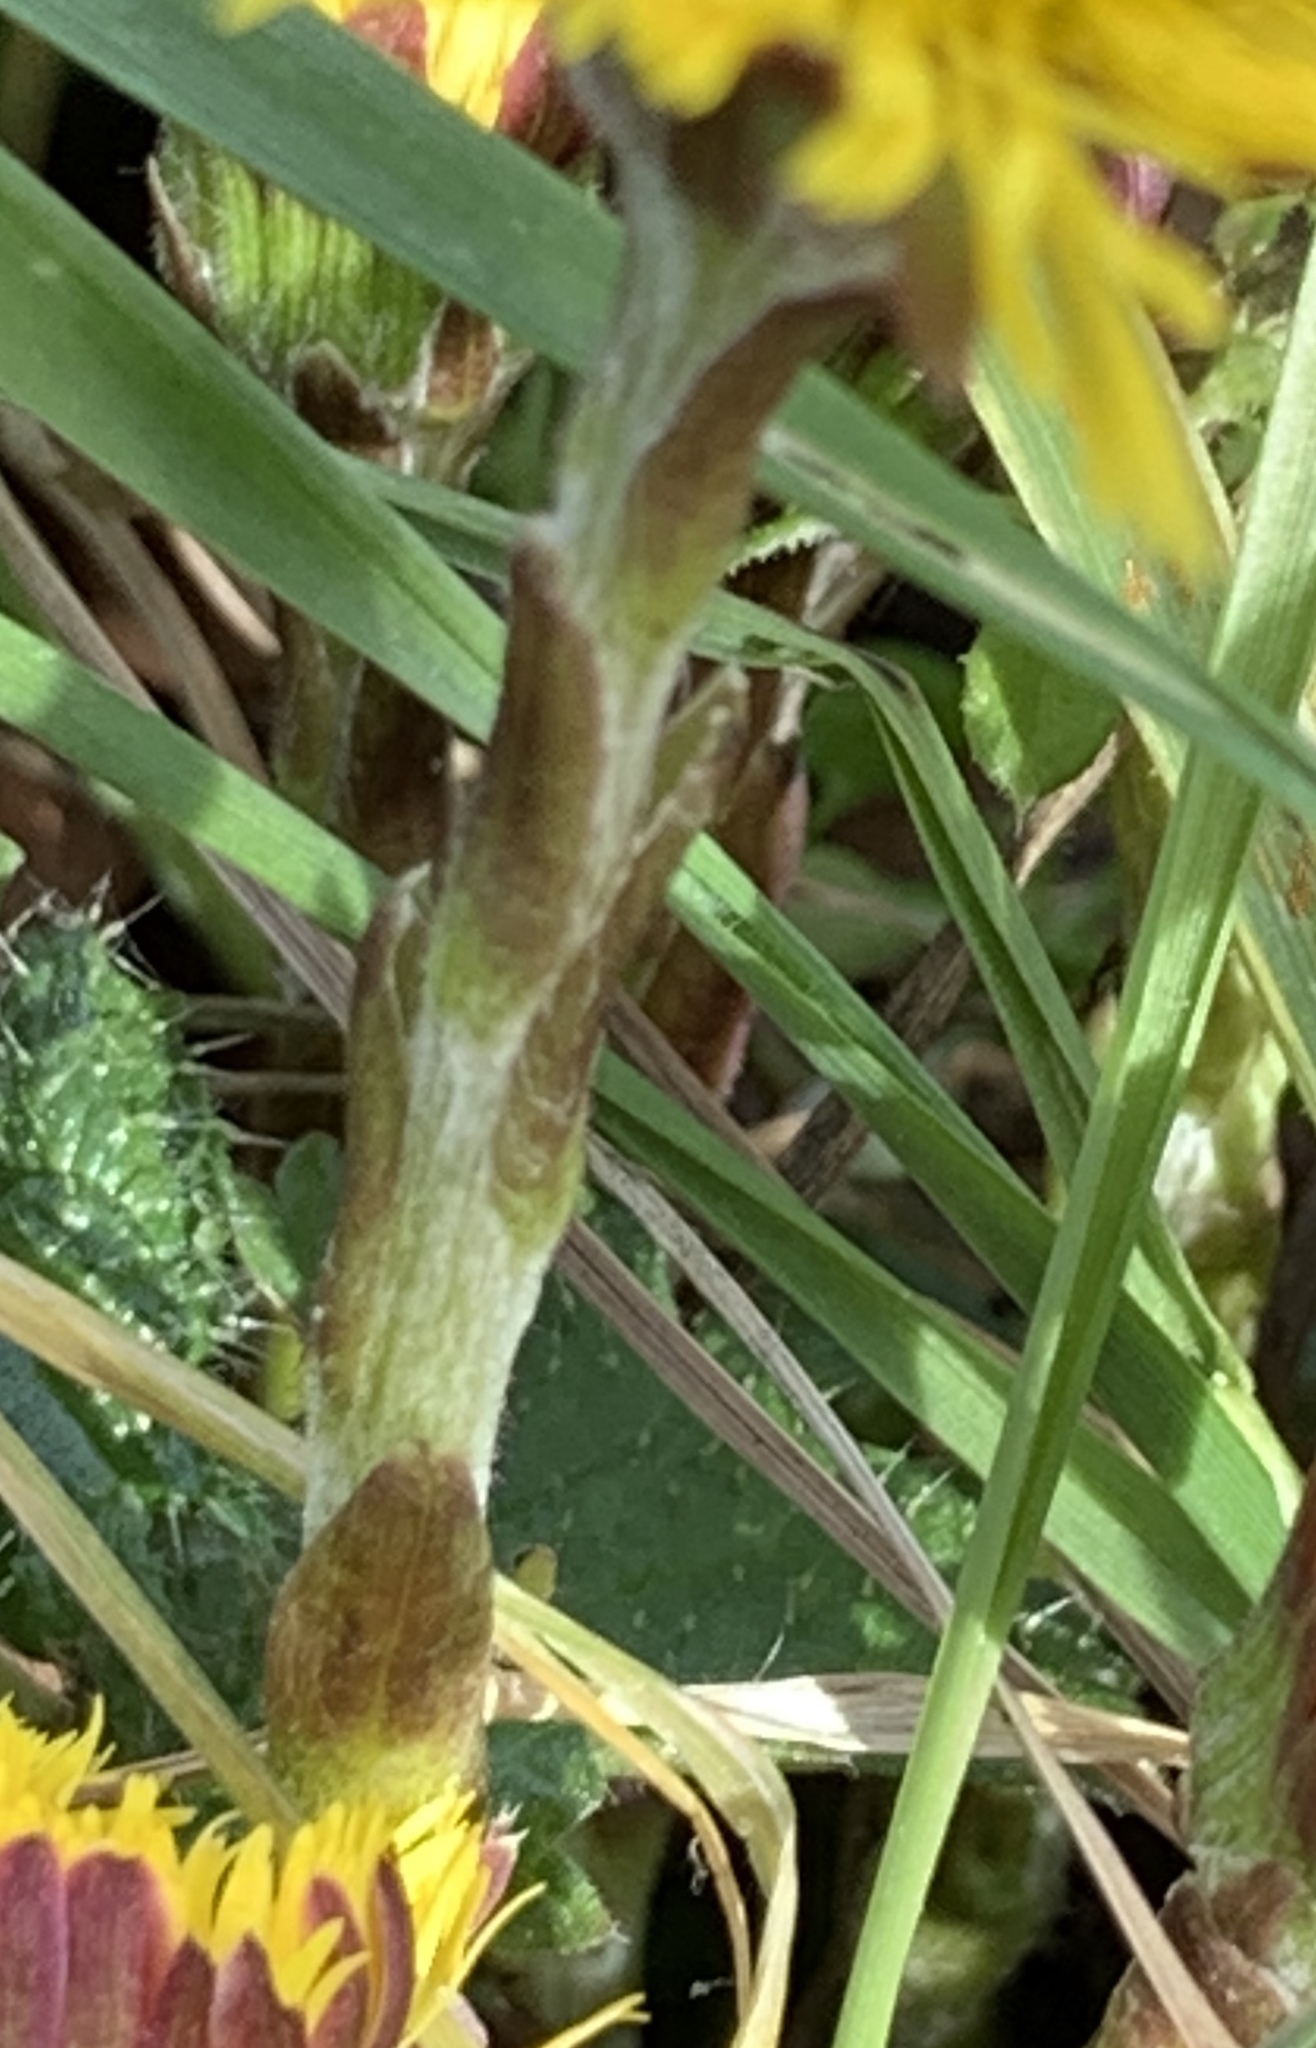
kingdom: Plantae
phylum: Tracheophyta
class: Magnoliopsida
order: Asterales
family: Asteraceae
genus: Tussilago
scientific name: Tussilago farfara
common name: Coltsfoot
